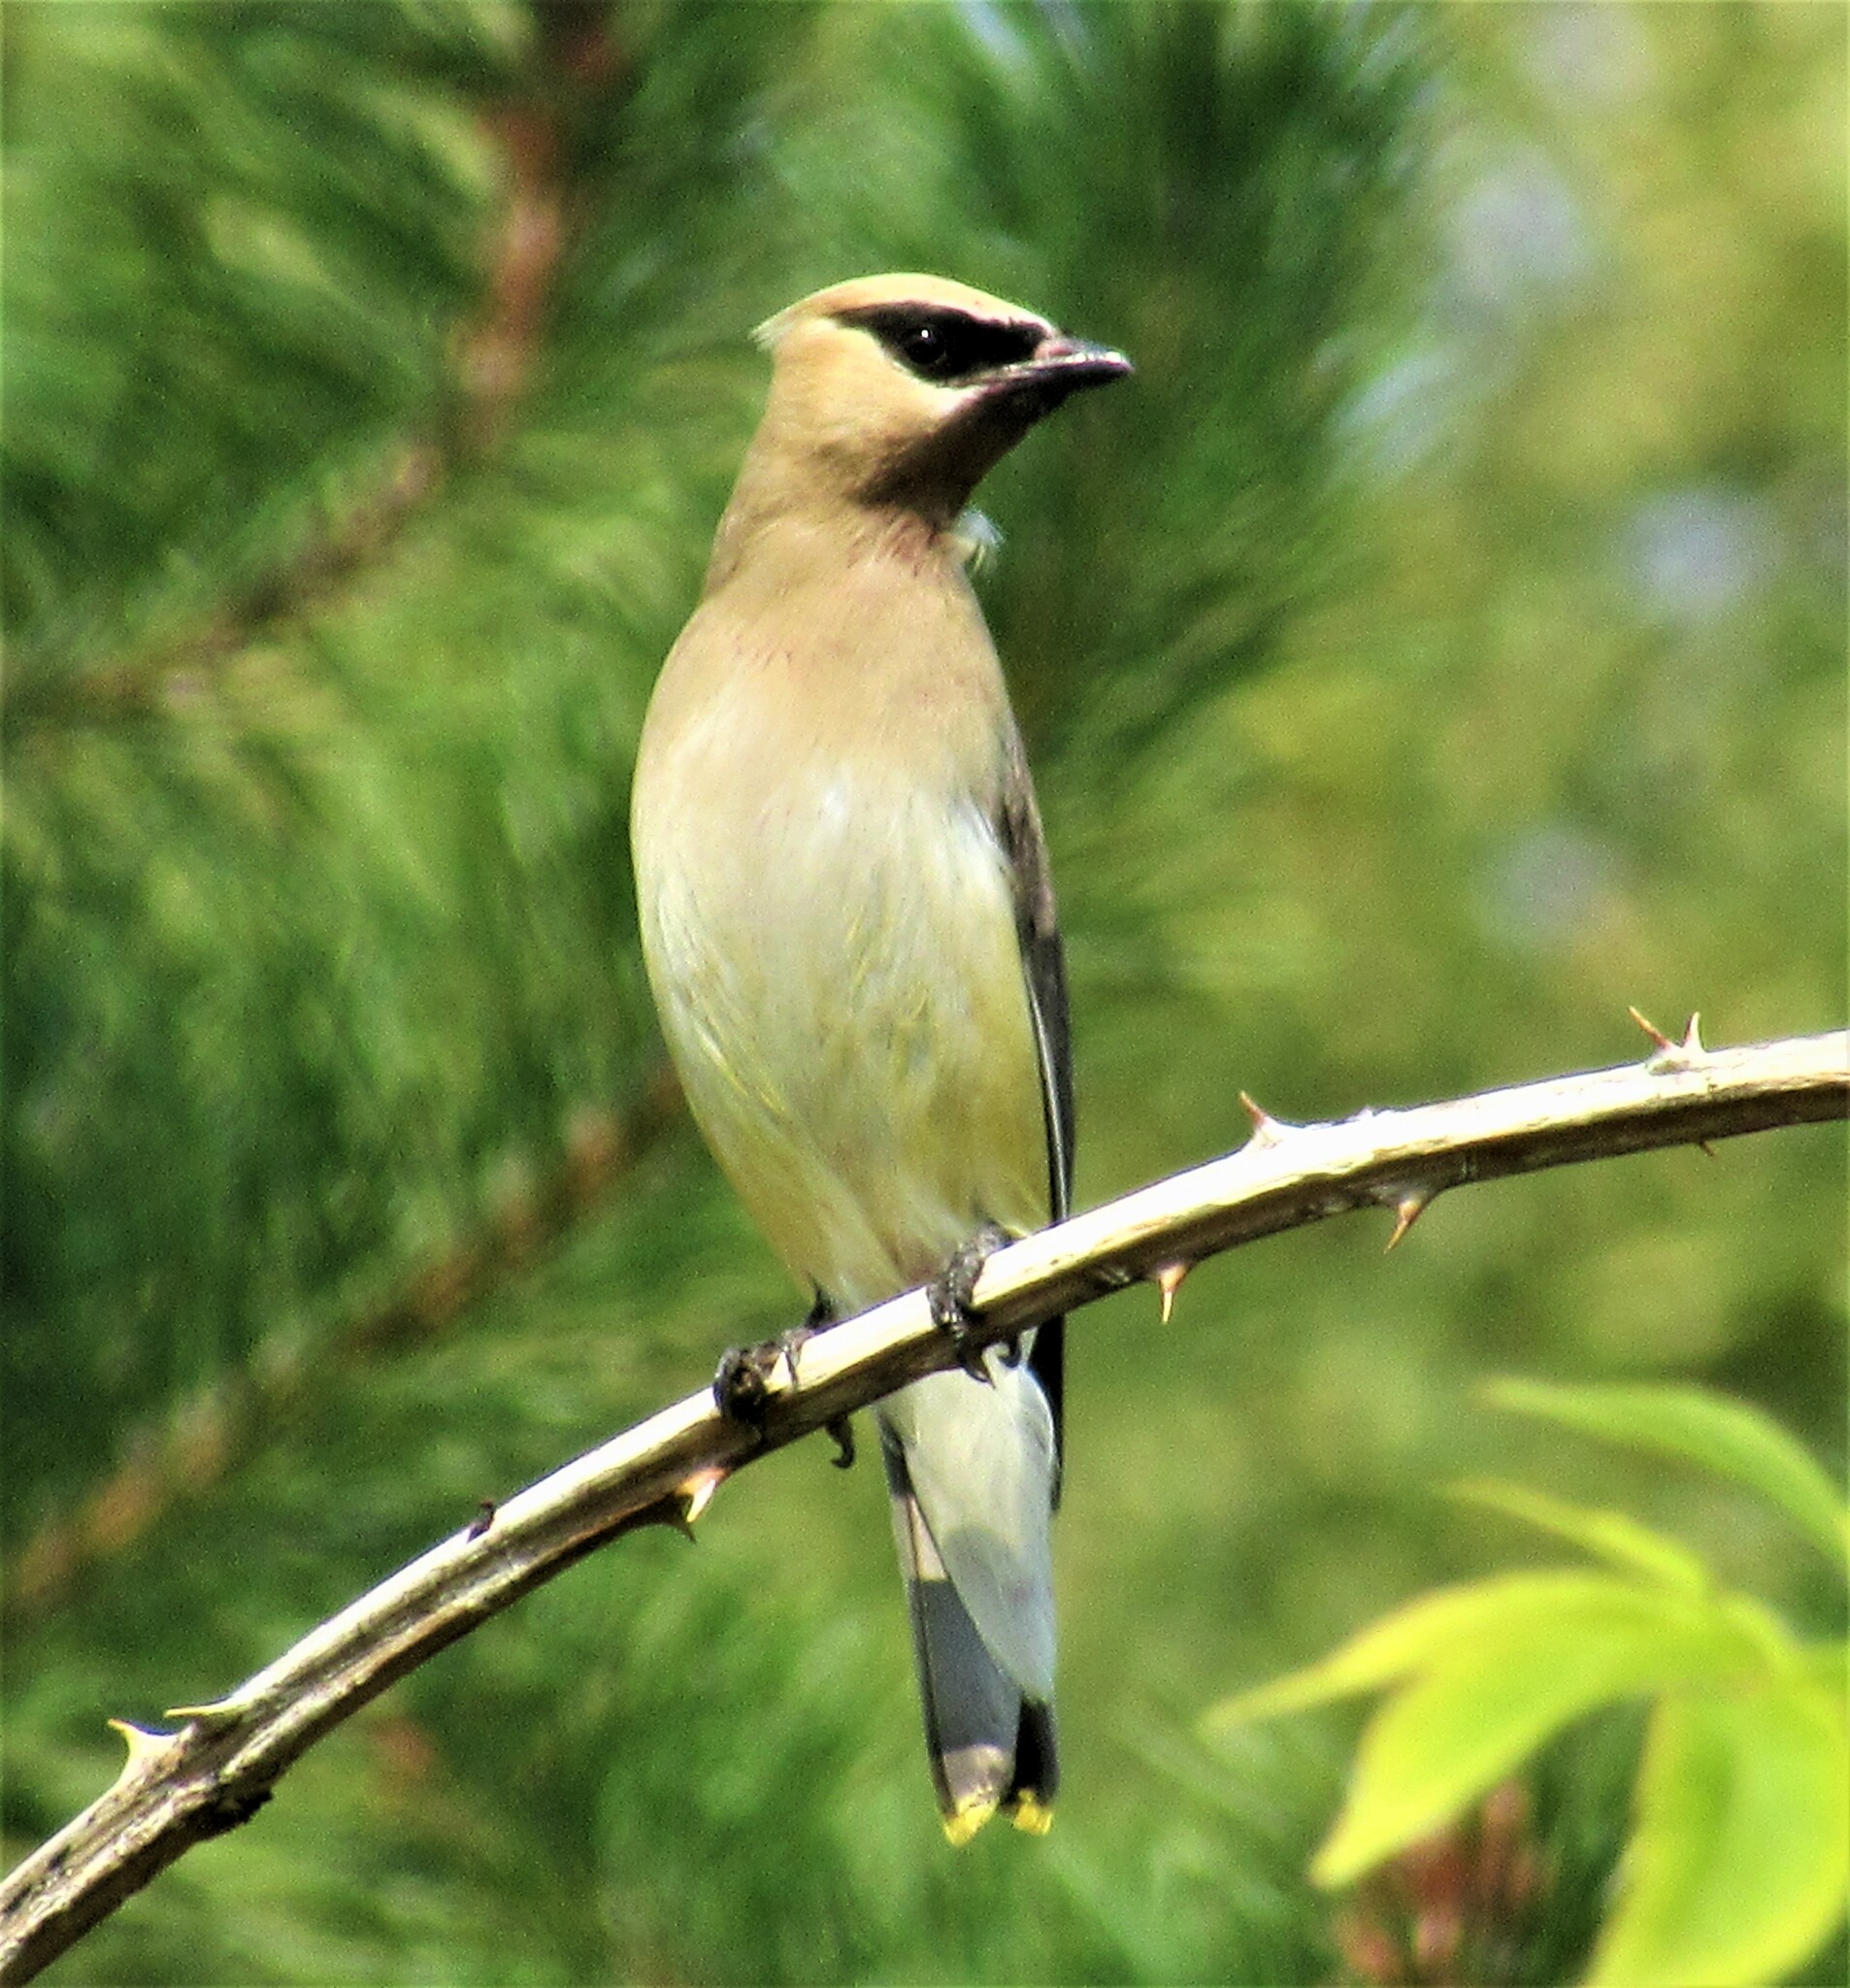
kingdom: Animalia
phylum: Chordata
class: Aves
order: Passeriformes
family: Bombycillidae
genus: Bombycilla
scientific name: Bombycilla cedrorum
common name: Cedar waxwing
